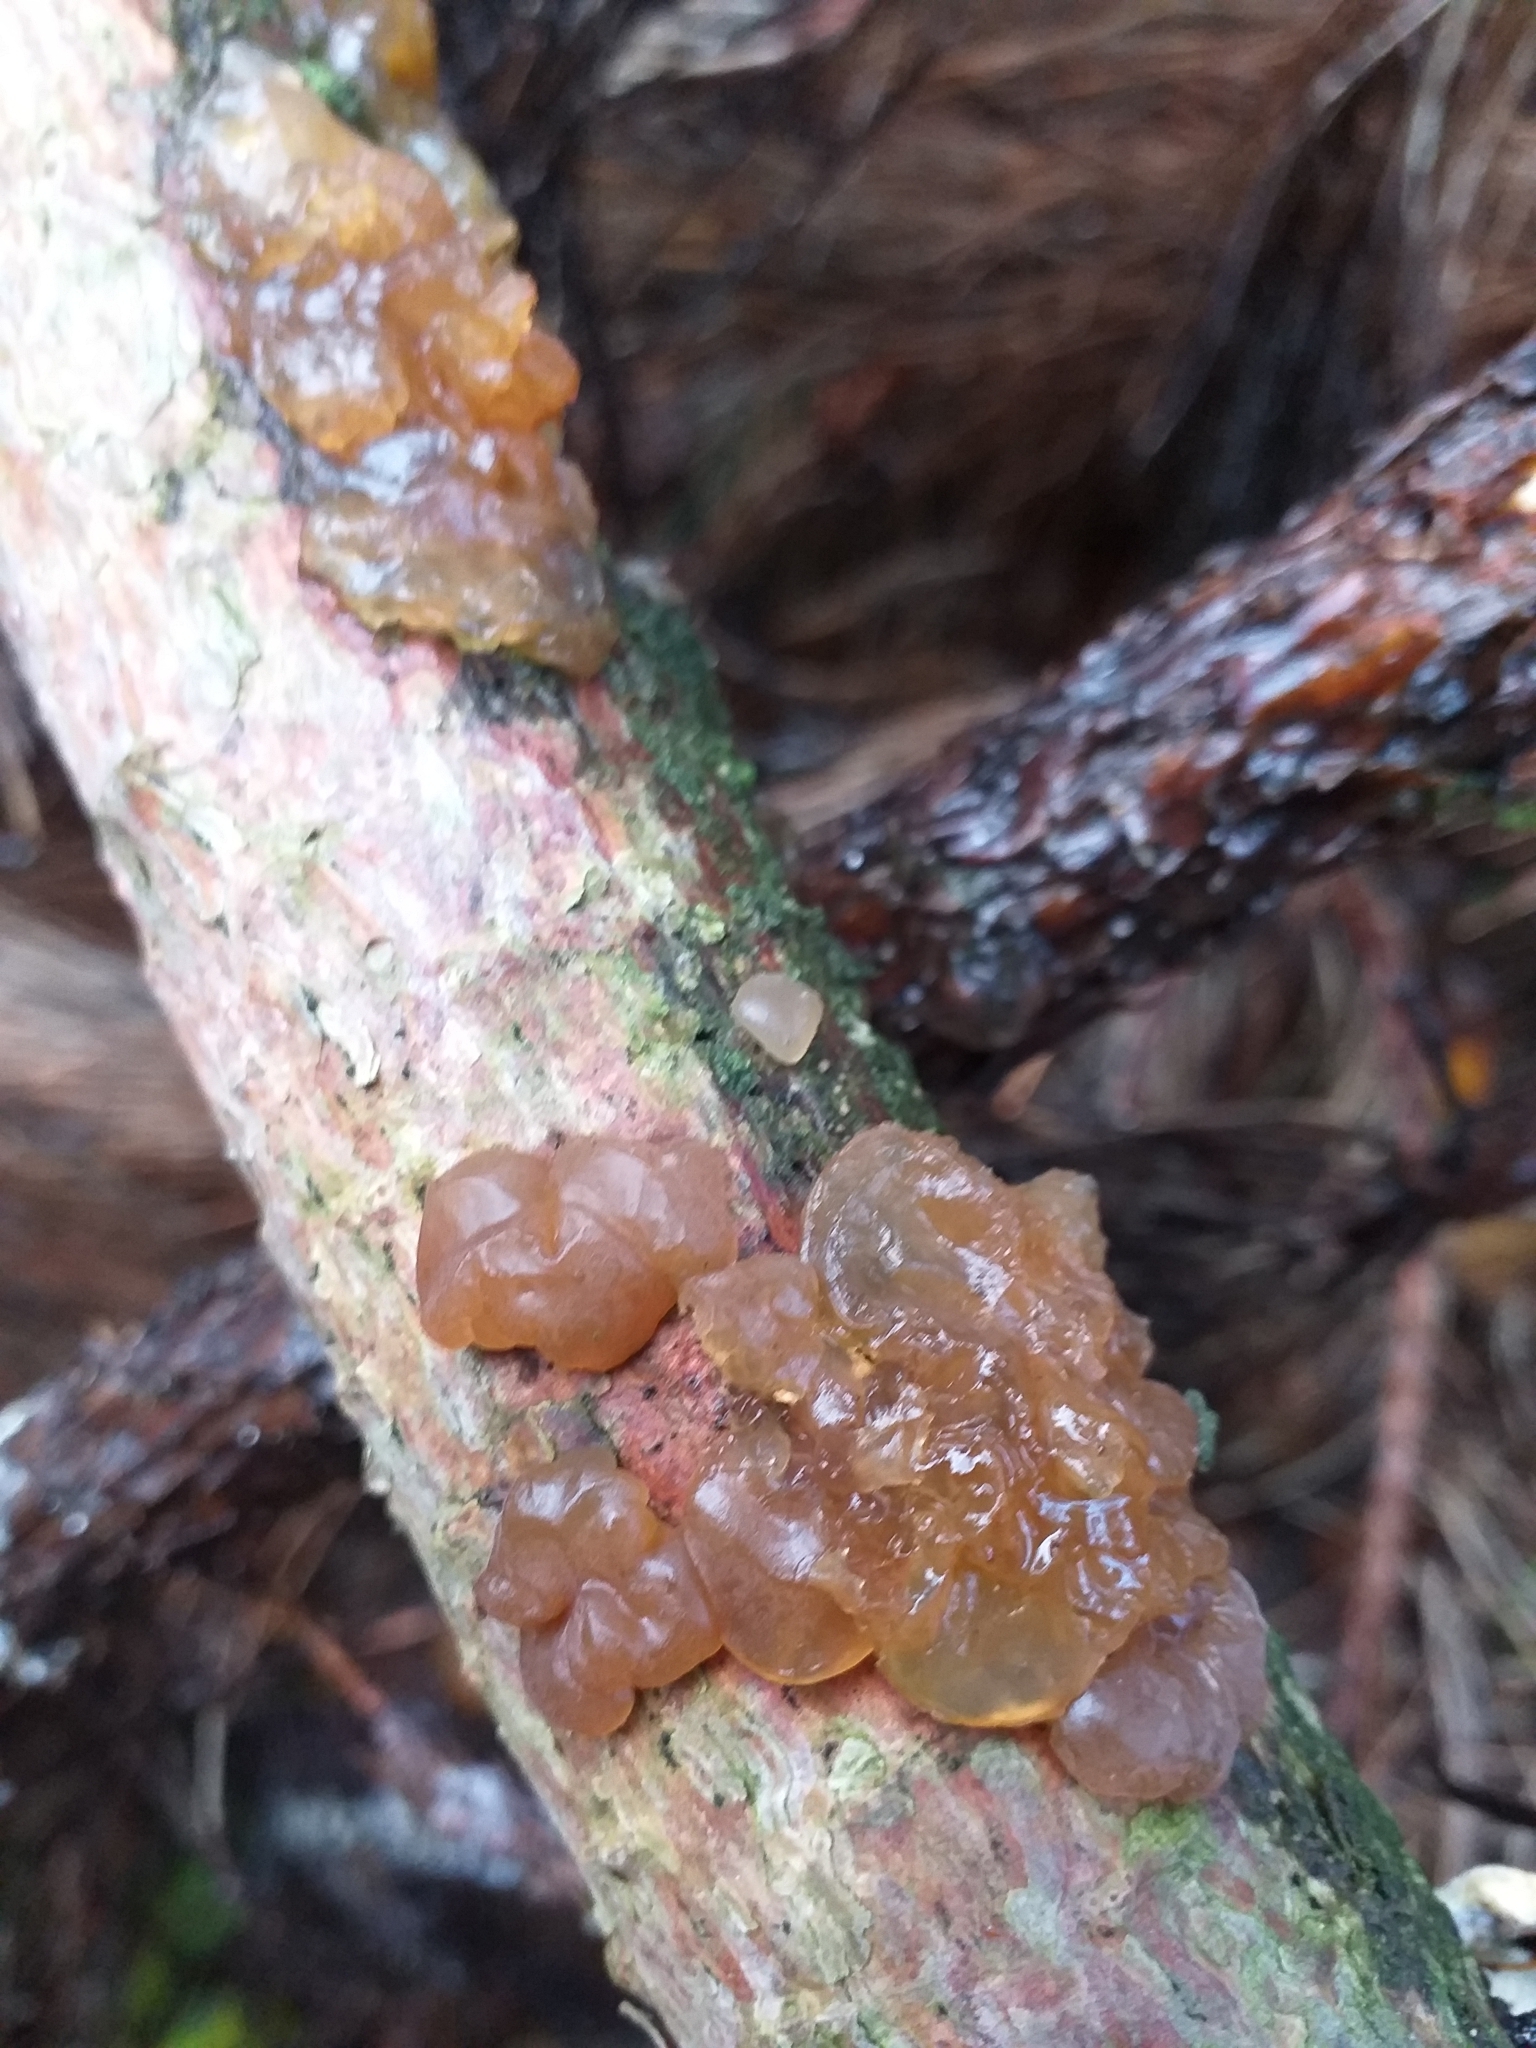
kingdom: Fungi
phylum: Basidiomycota
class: Agaricomycetes
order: Auriculariales
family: Auriculariaceae
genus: Exidia
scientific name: Exidia saccharina
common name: Pine jelly
